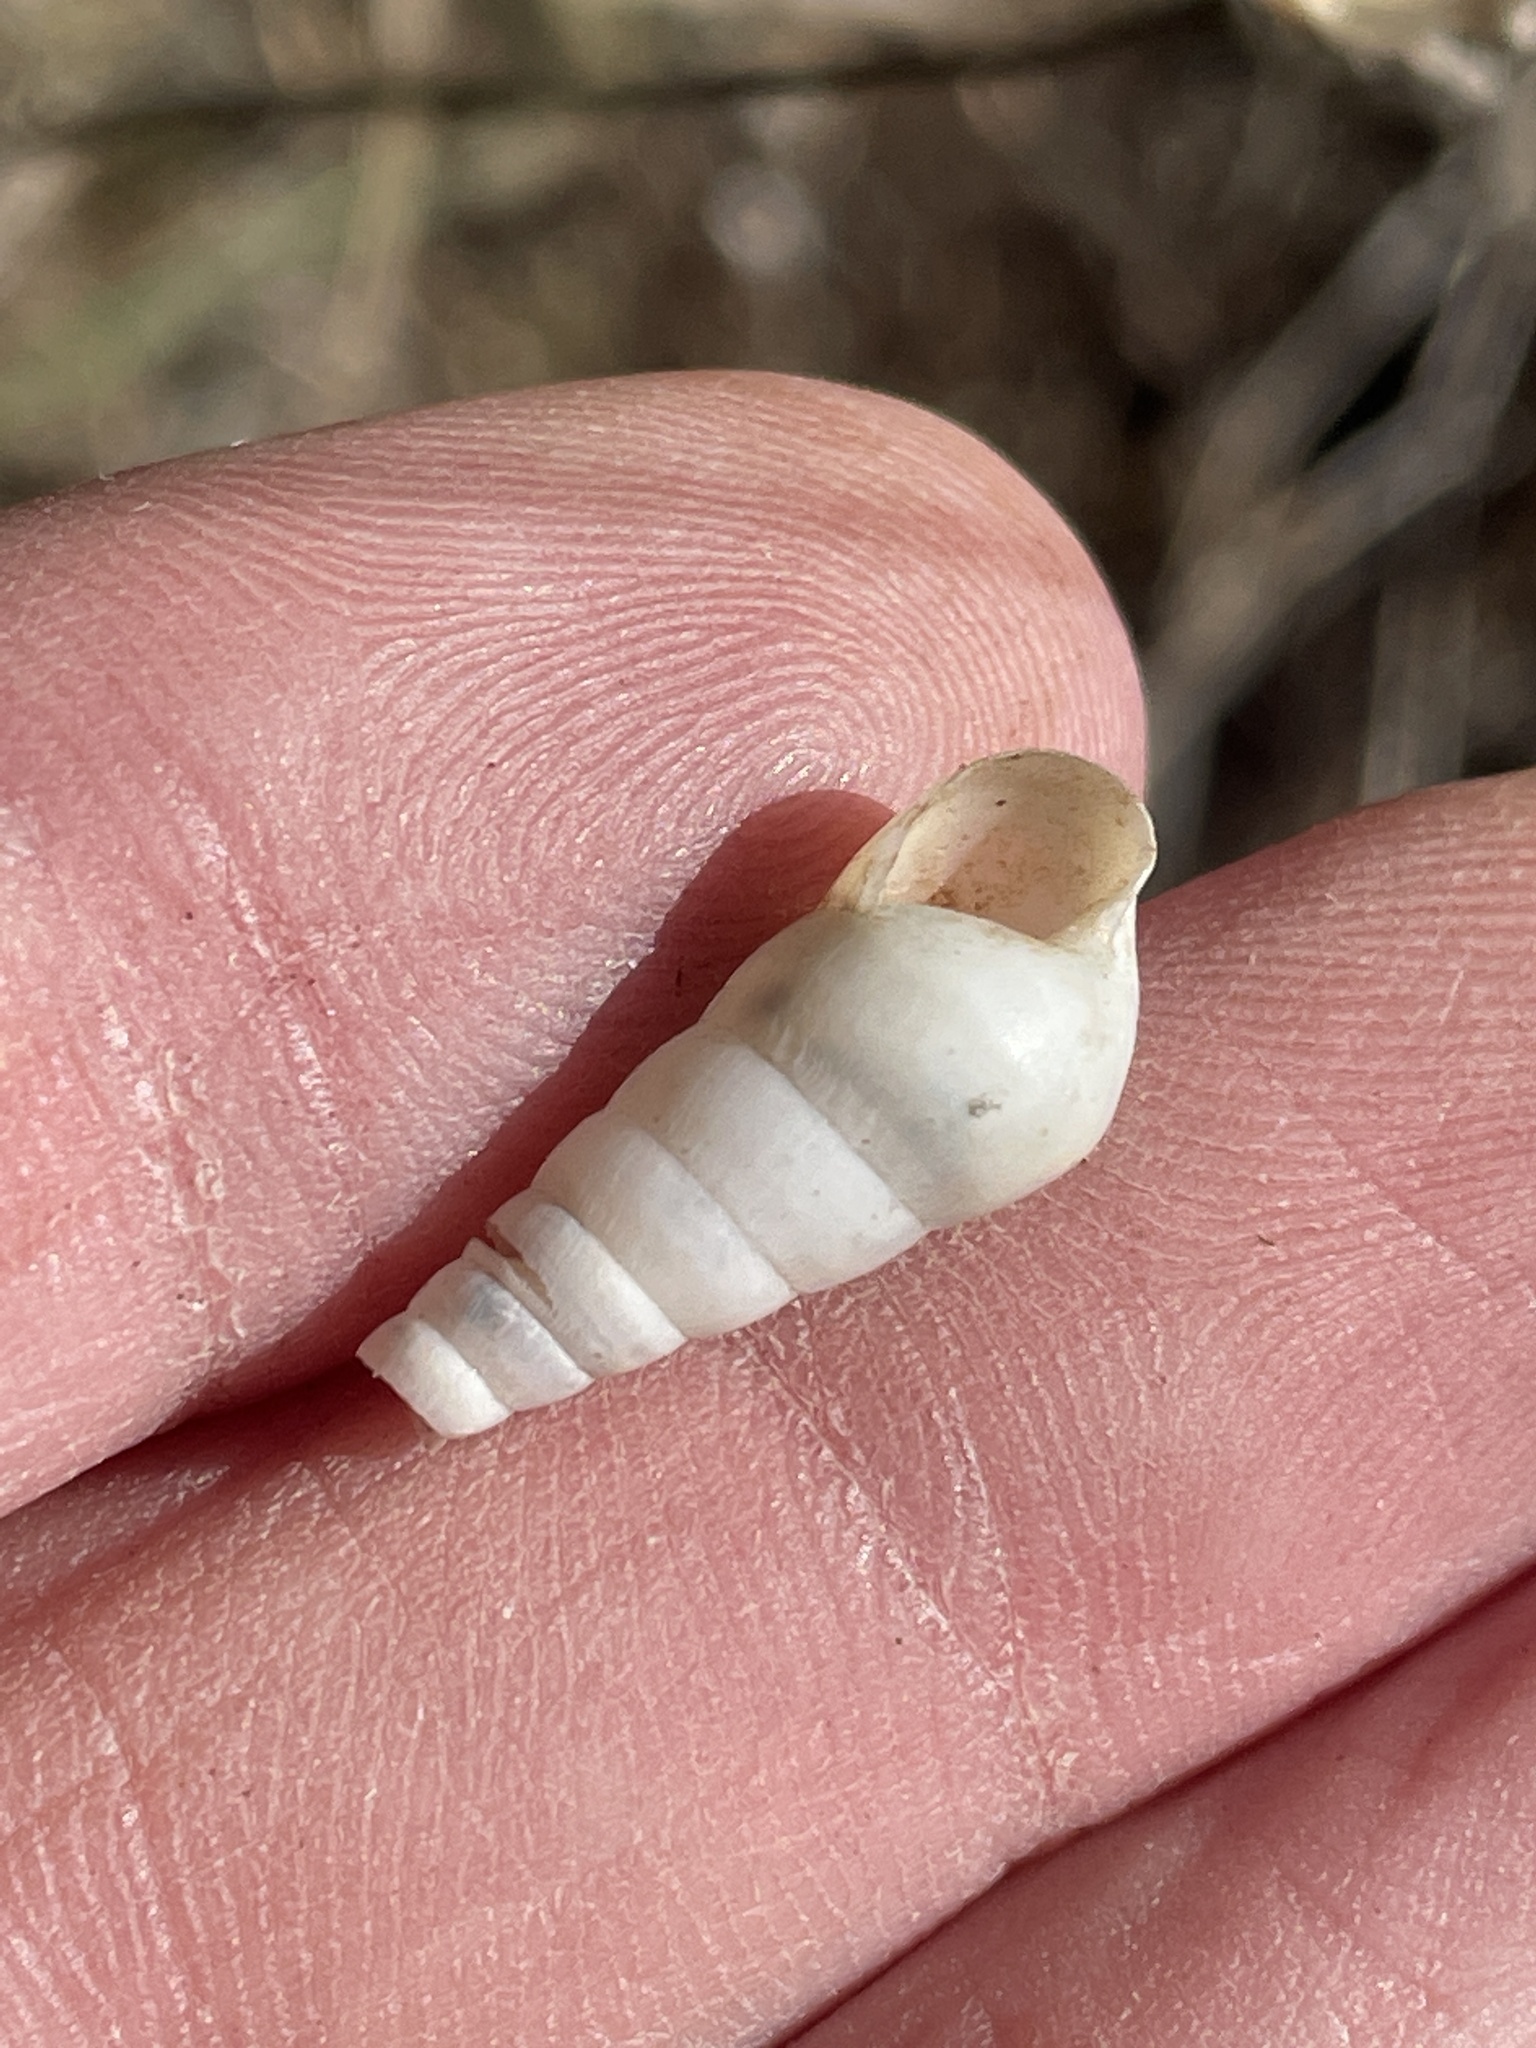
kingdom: Animalia
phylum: Mollusca
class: Gastropoda
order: Stylommatophora
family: Achatinidae
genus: Rumina
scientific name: Rumina decollata
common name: Decollate snail
